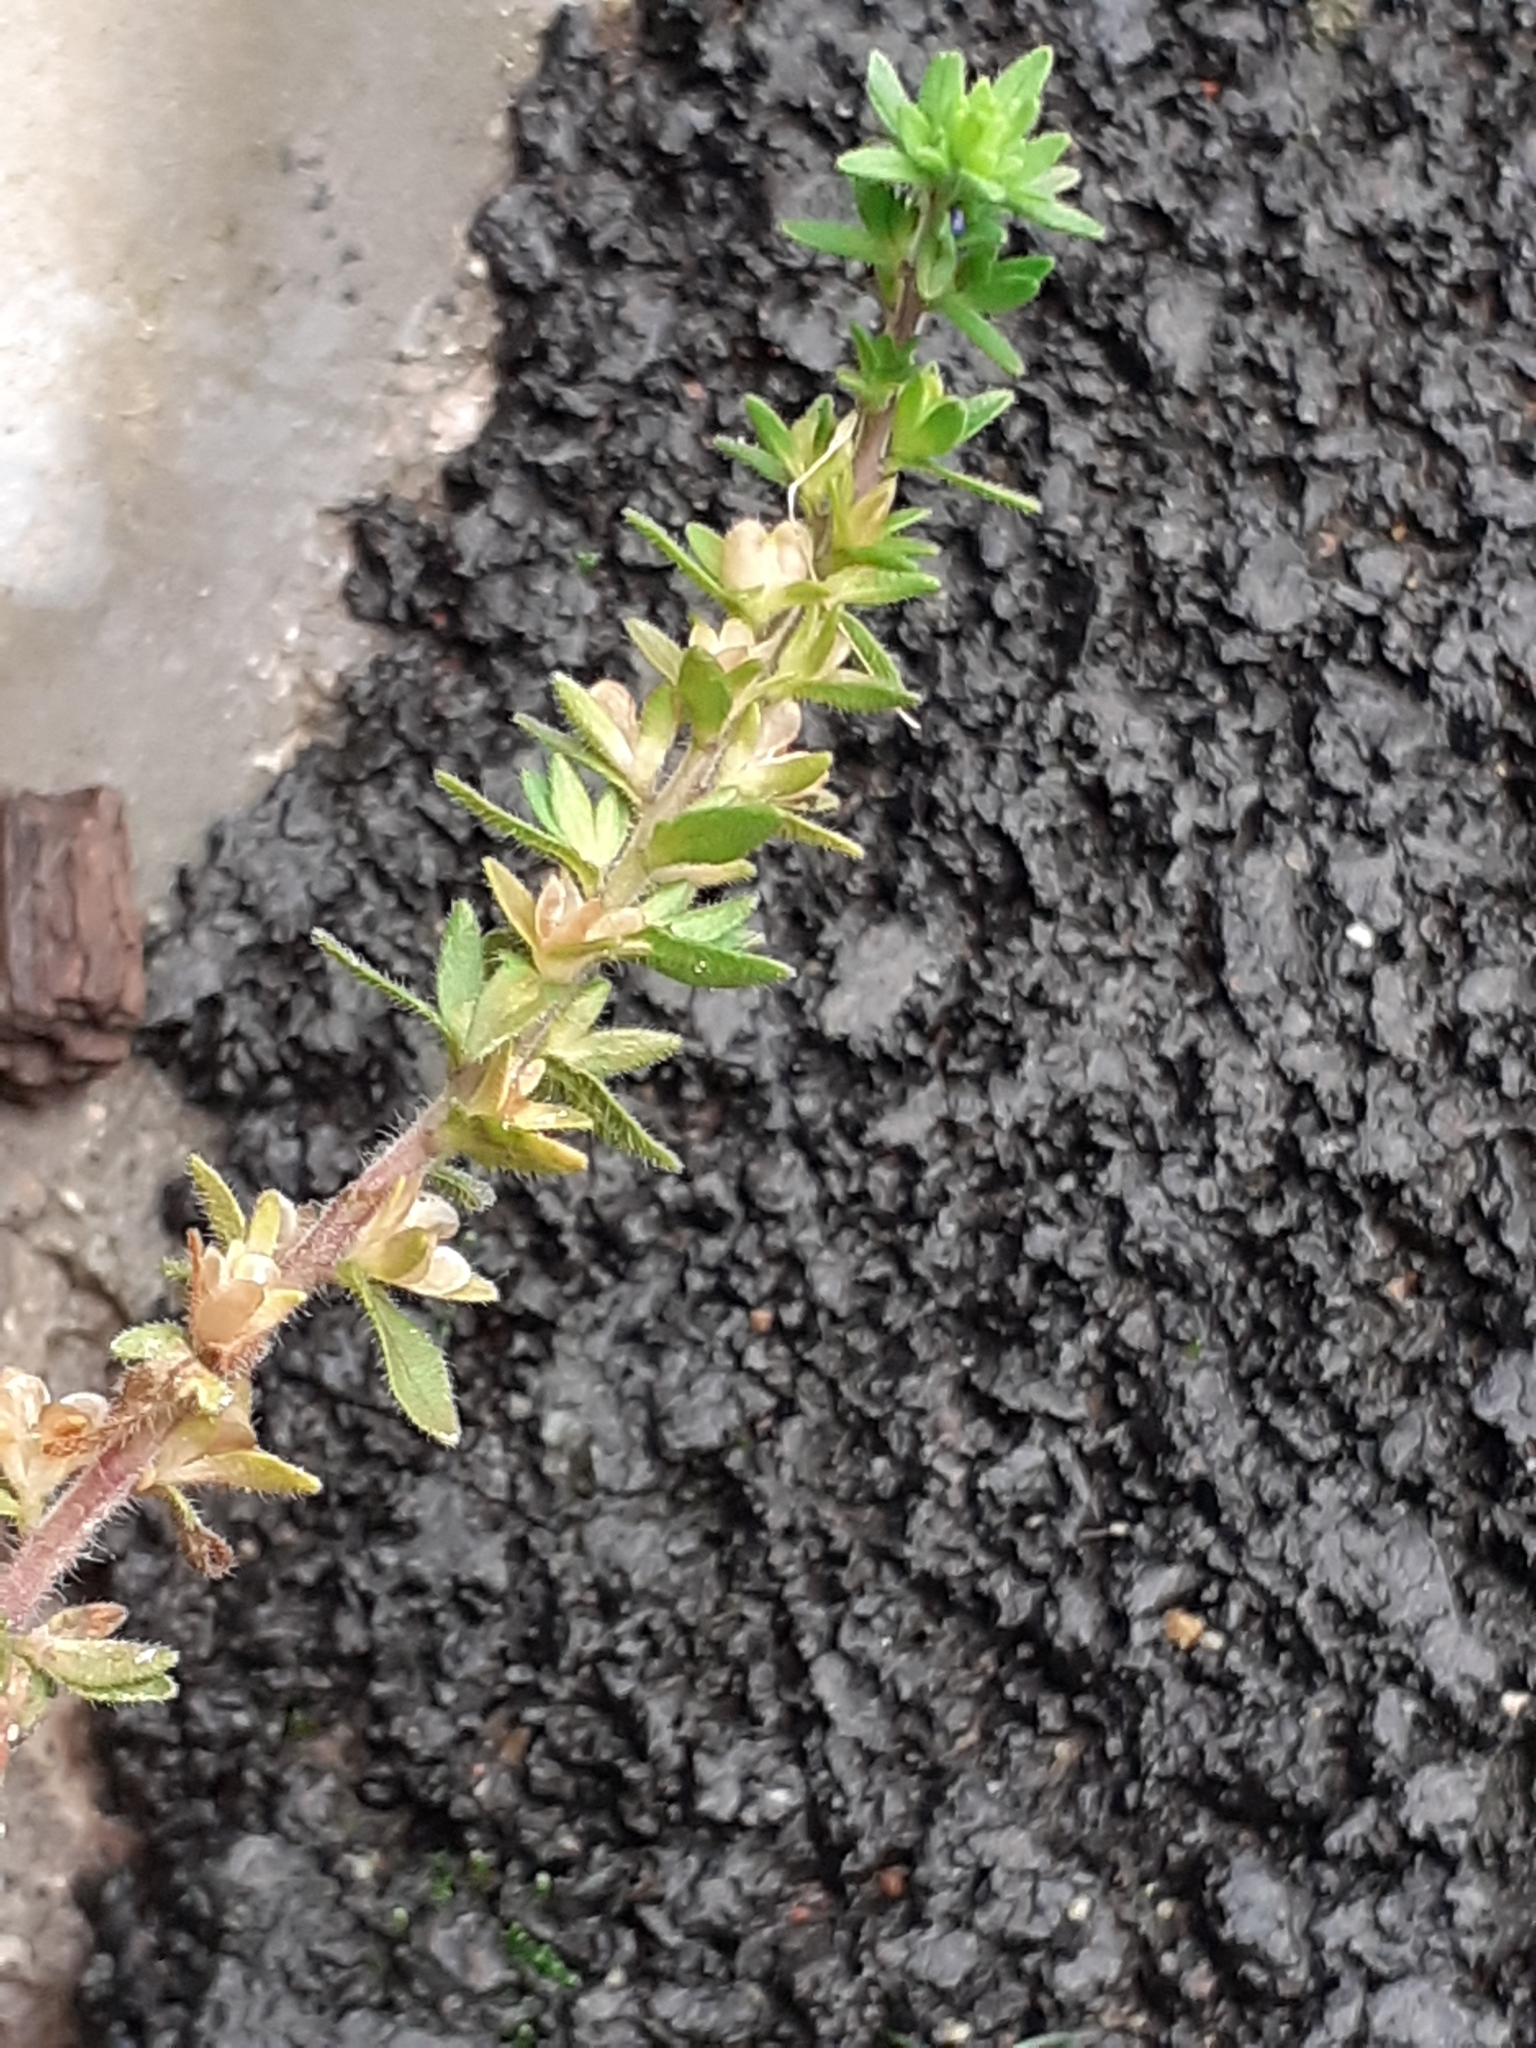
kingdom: Plantae
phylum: Tracheophyta
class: Magnoliopsida
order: Lamiales
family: Plantaginaceae
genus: Veronica
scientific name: Veronica arvensis
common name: Corn speedwell
